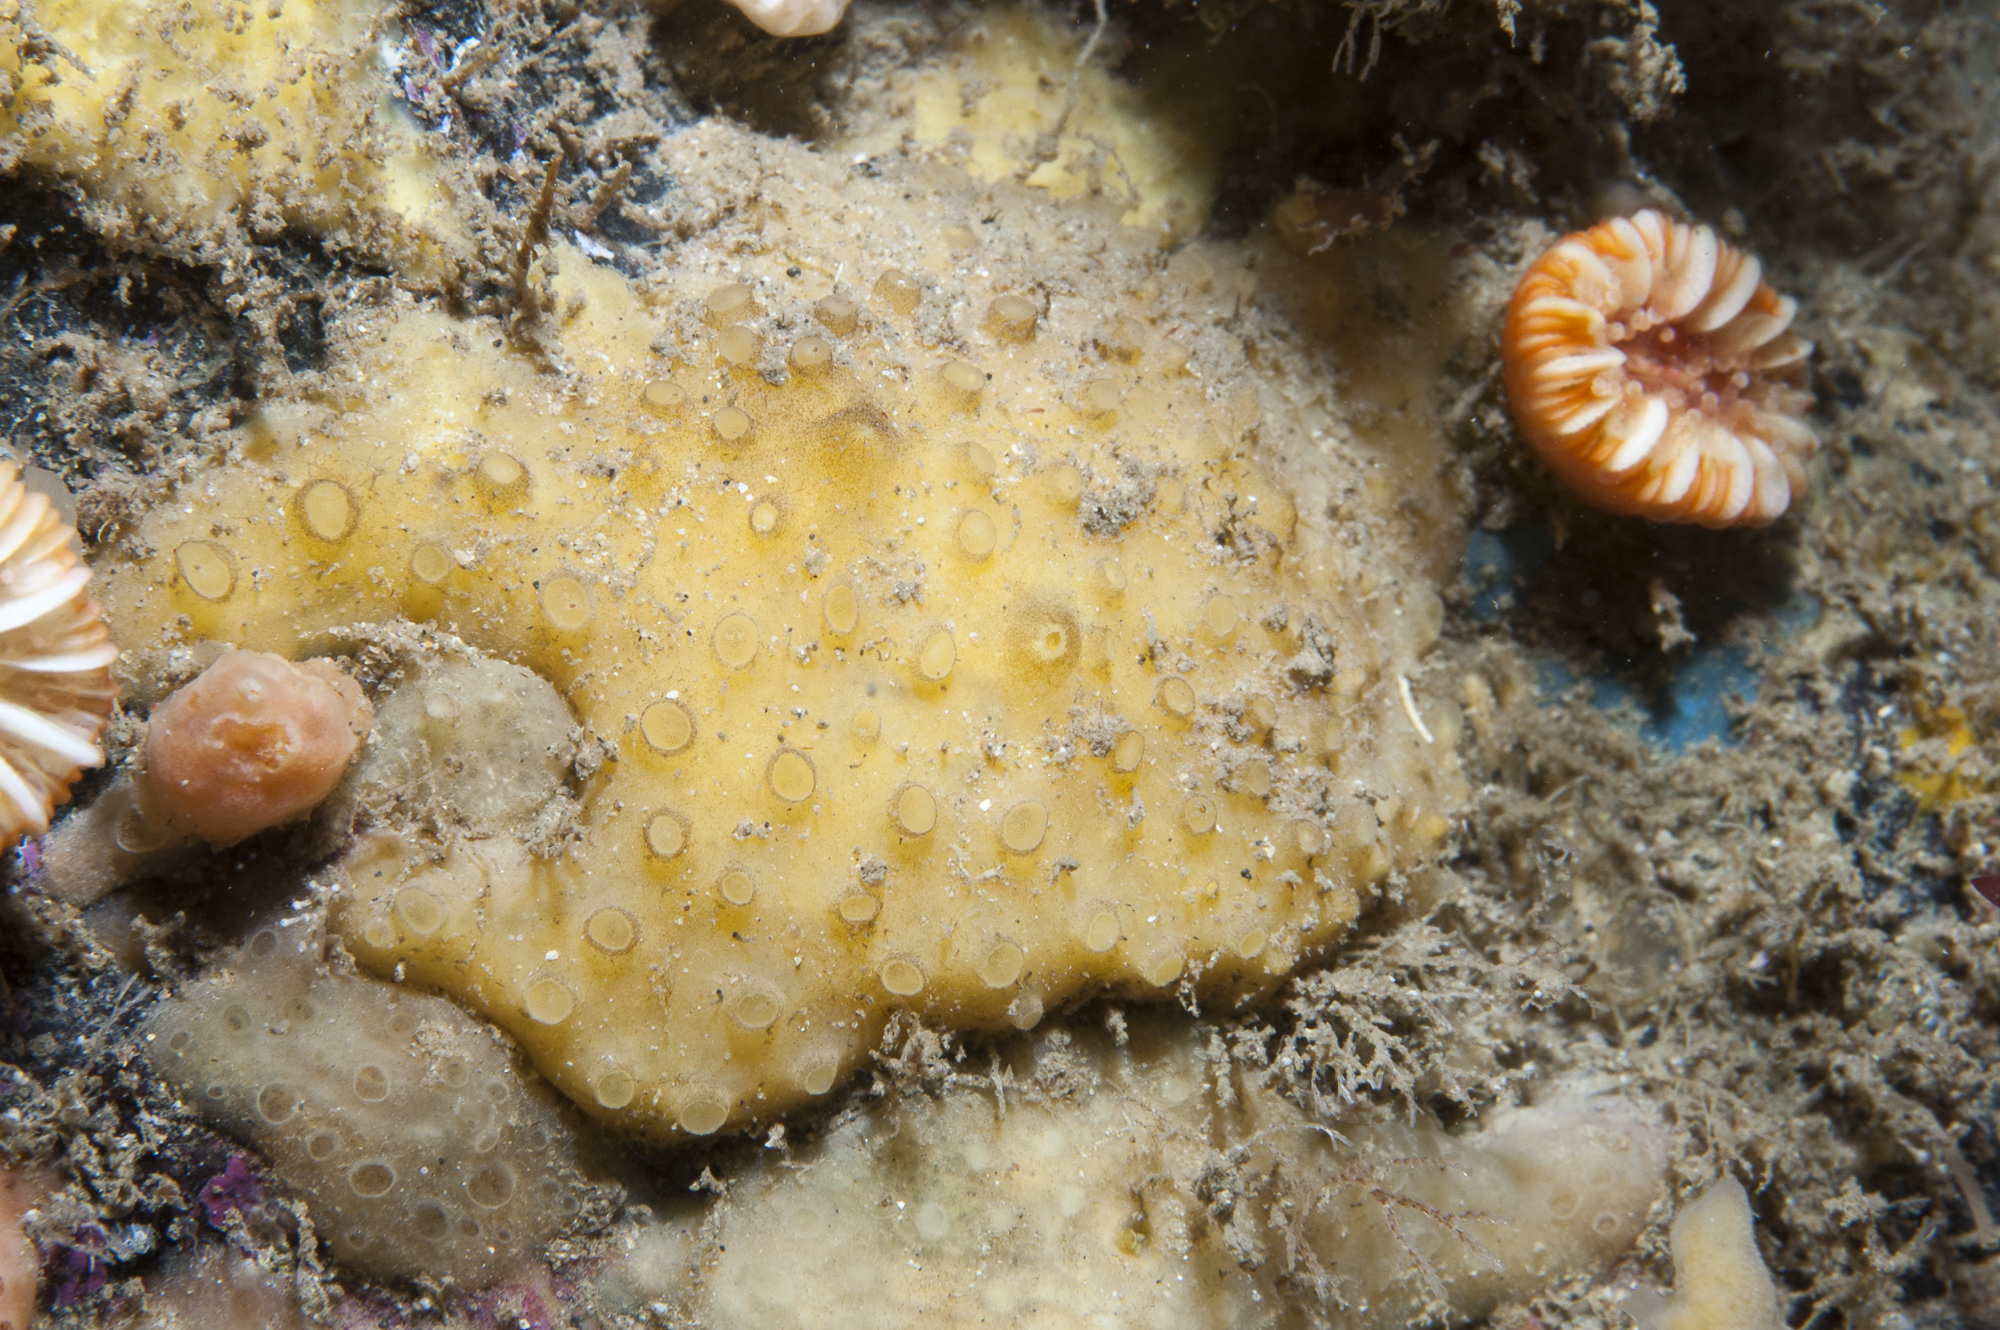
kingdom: Animalia
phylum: Porifera
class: Demospongiae
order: Poecilosclerida
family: Coelosphaeridae
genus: Lissodendoryx
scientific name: Lissodendoryx jenjonesae
